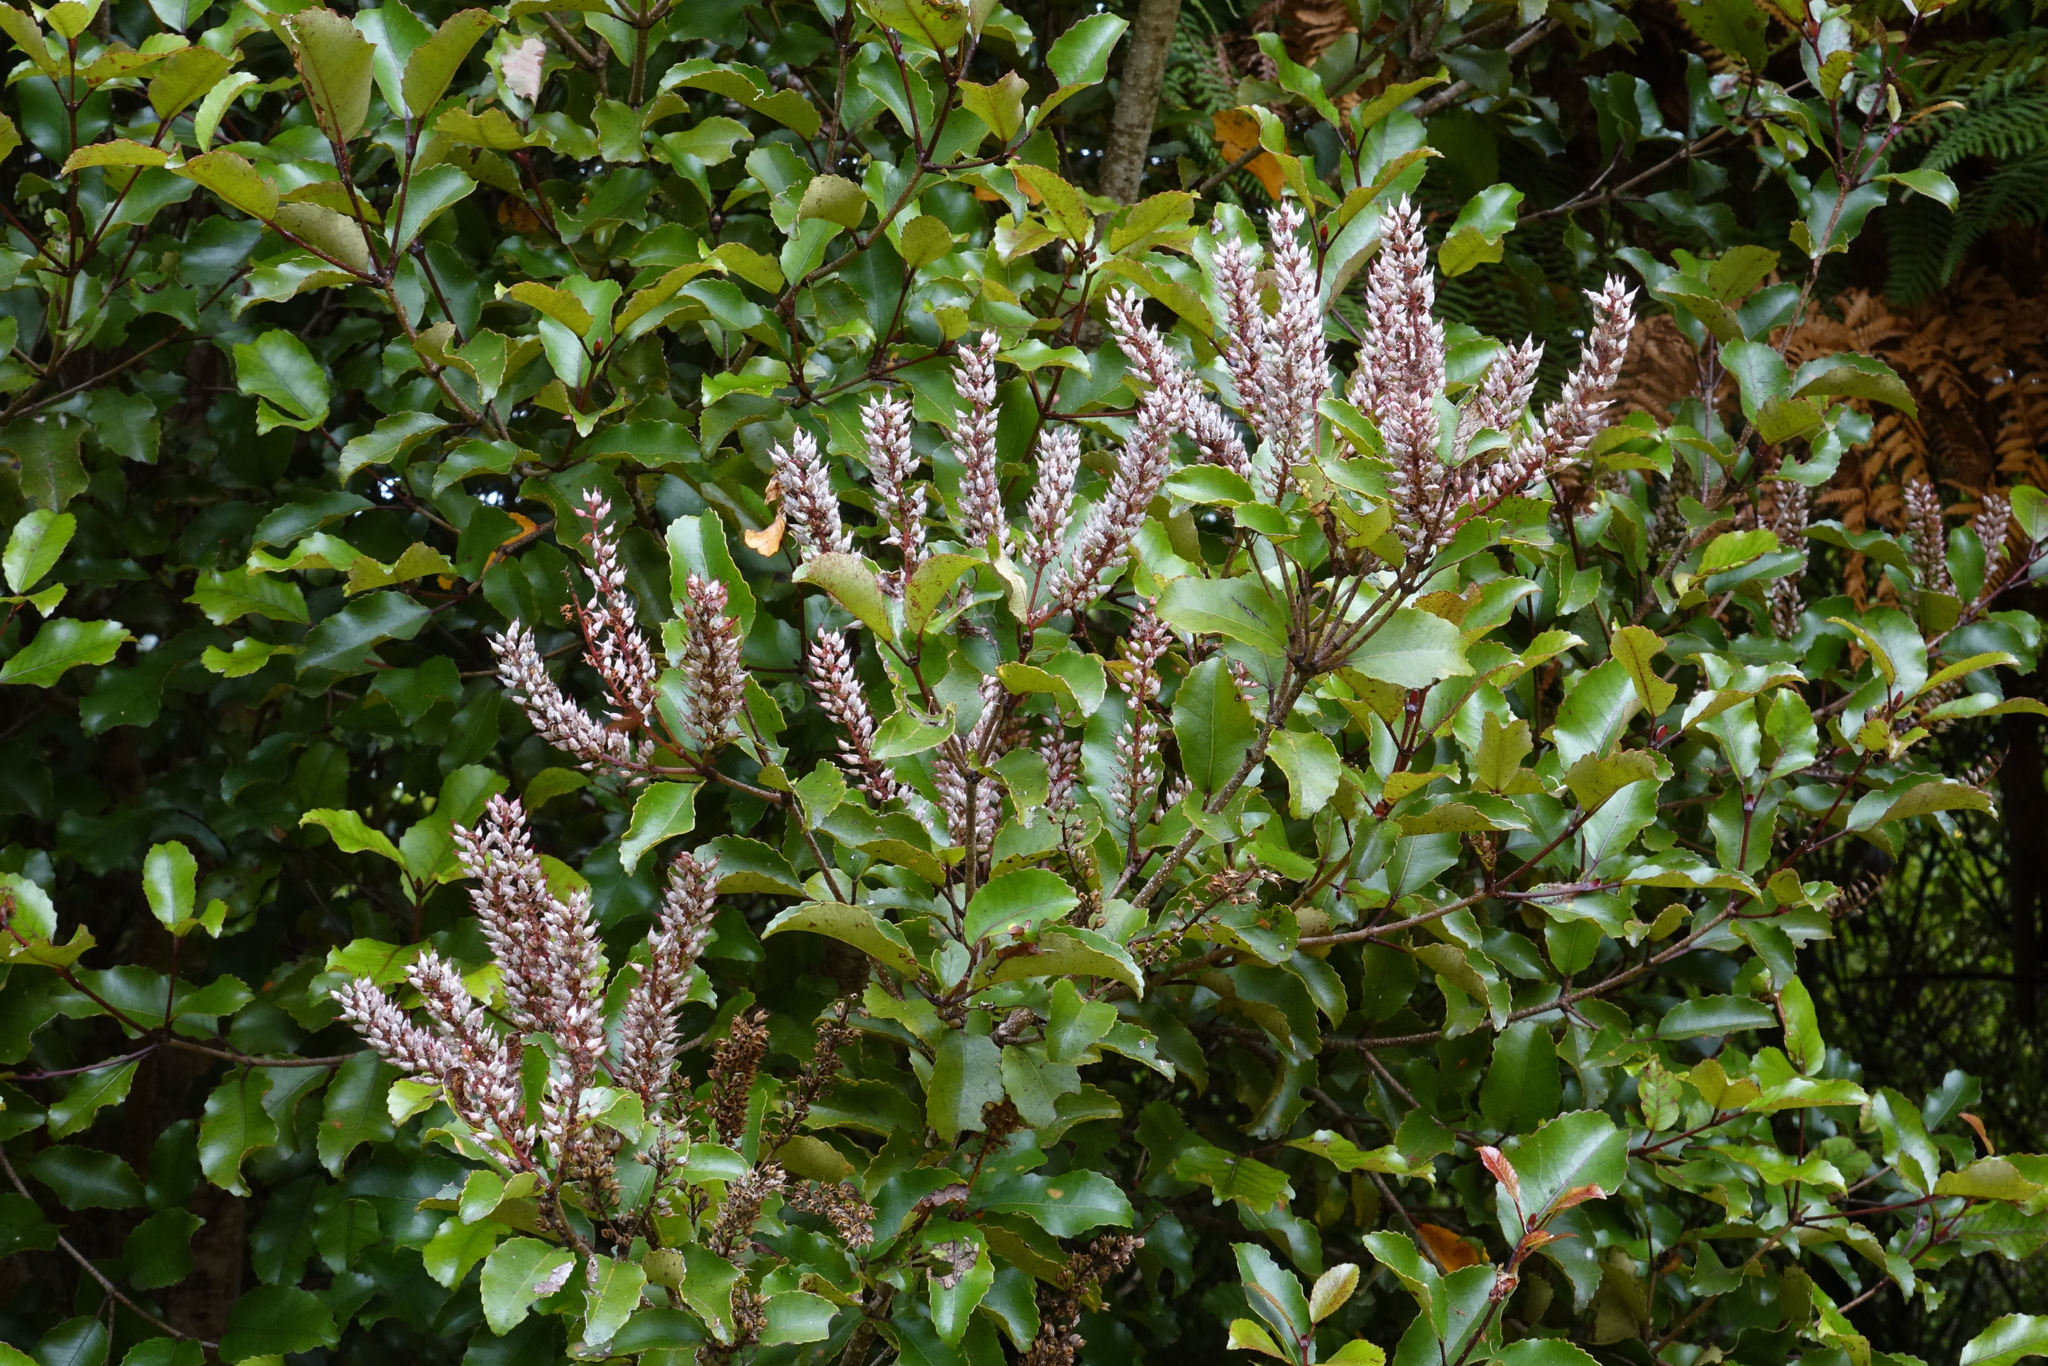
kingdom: Plantae
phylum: Tracheophyta
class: Magnoliopsida
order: Oxalidales
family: Cunoniaceae
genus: Pterophylla
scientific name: Pterophylla racemosa
